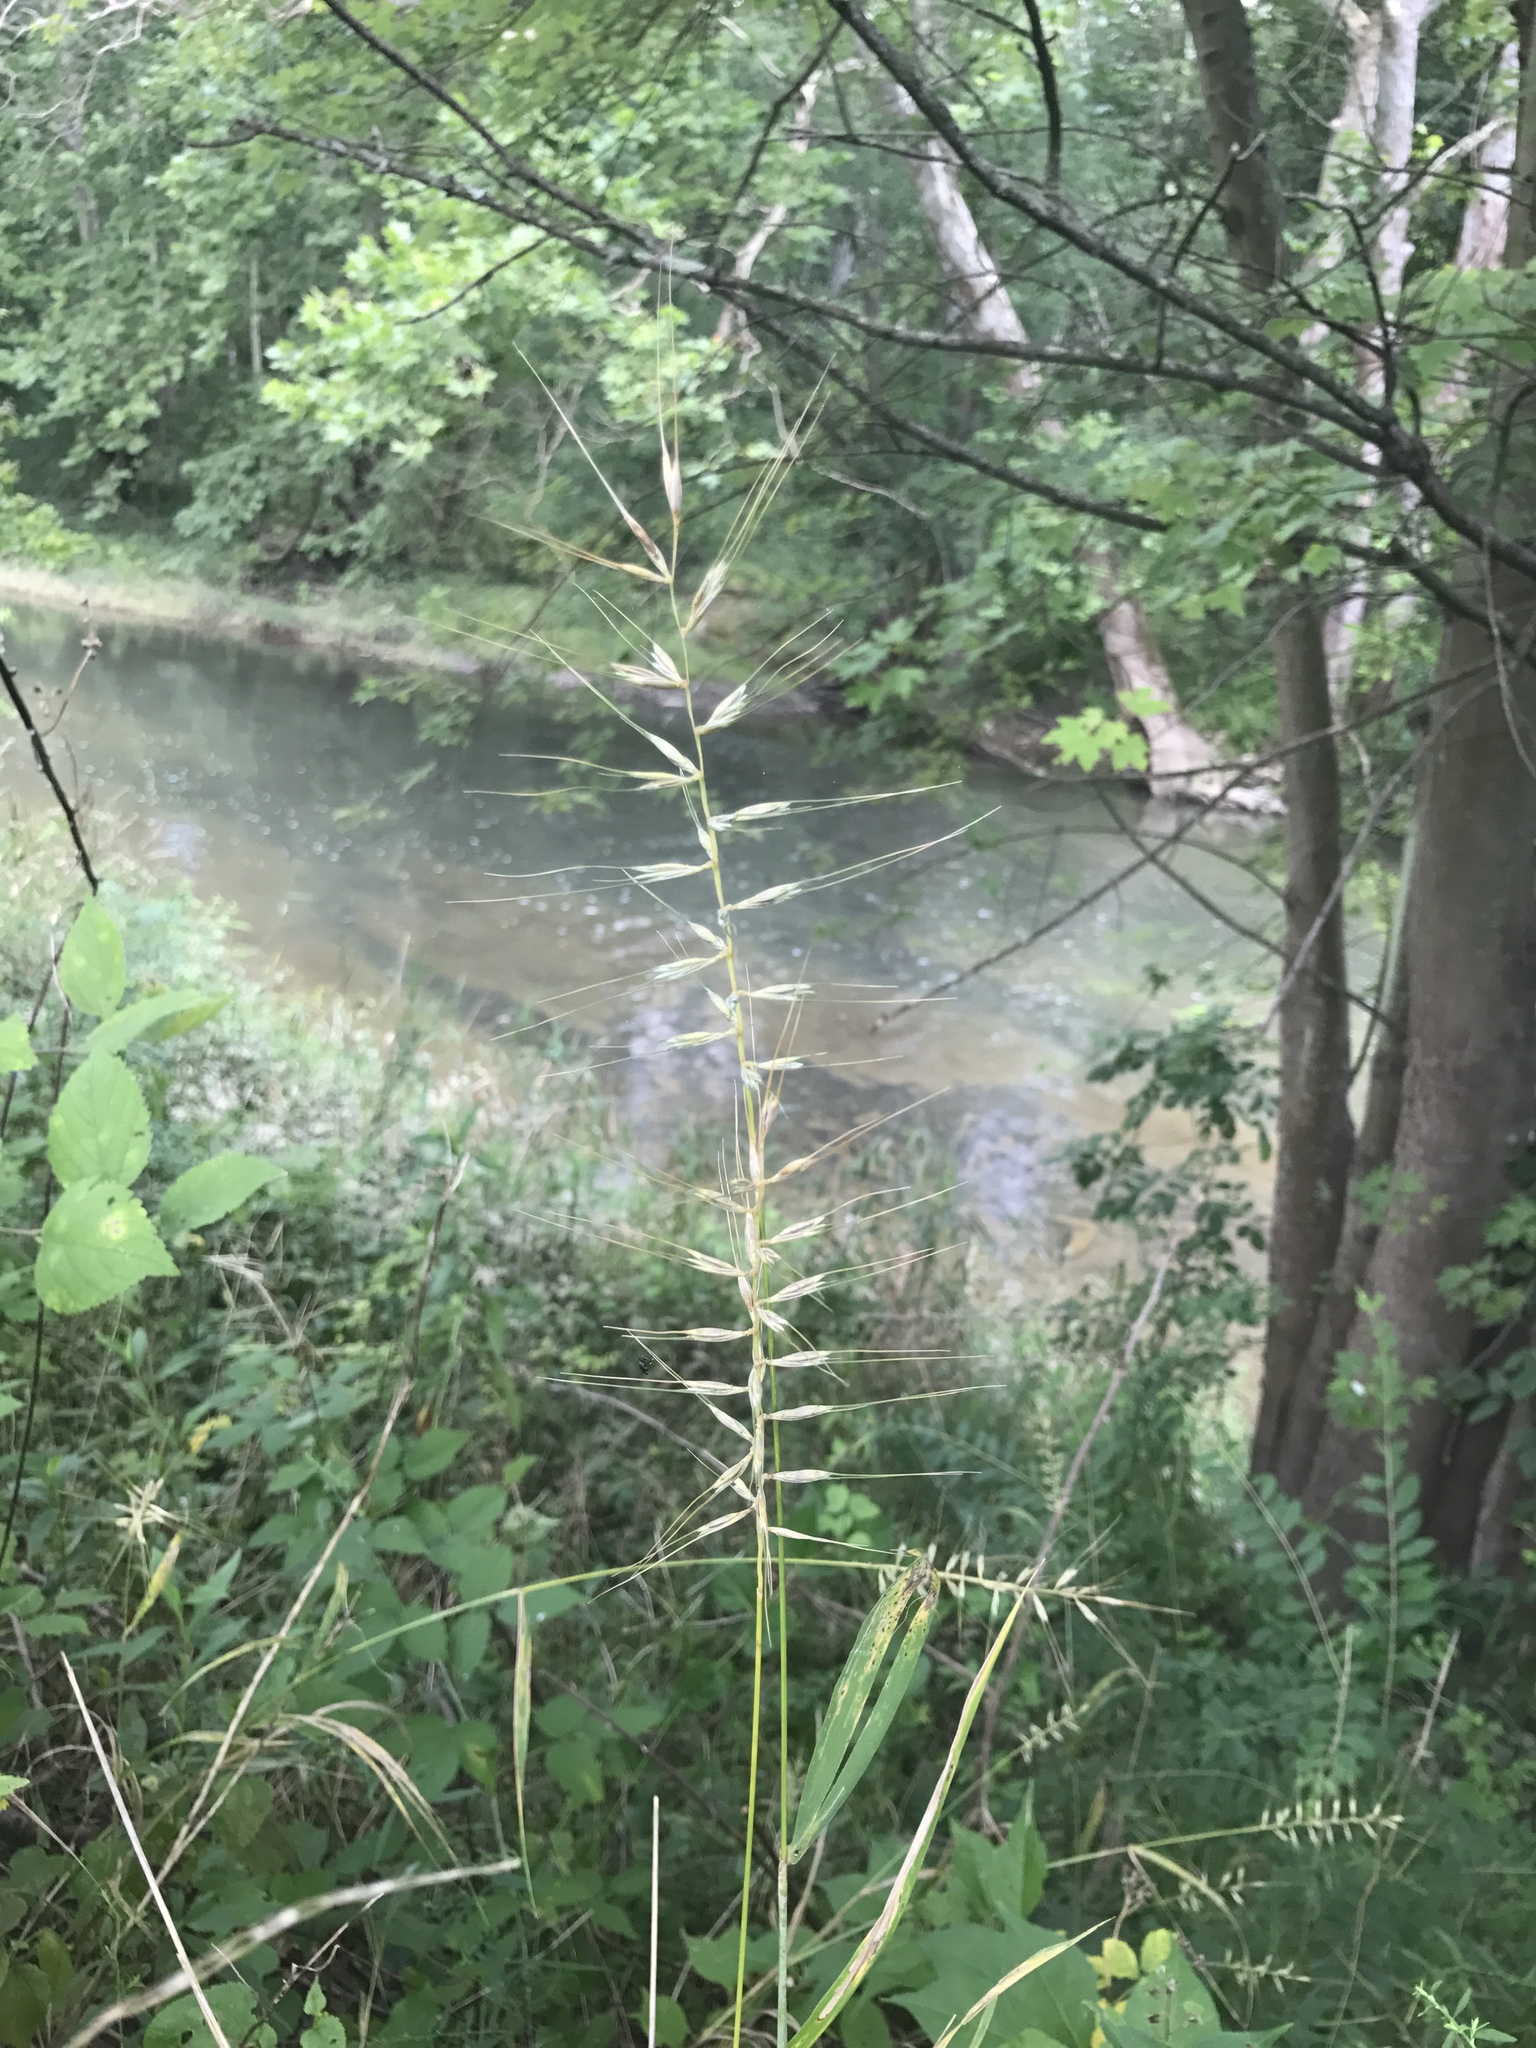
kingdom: Plantae
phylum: Tracheophyta
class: Liliopsida
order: Poales
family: Poaceae
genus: Elymus
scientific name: Elymus hystrix
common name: Bottlebrush grass
